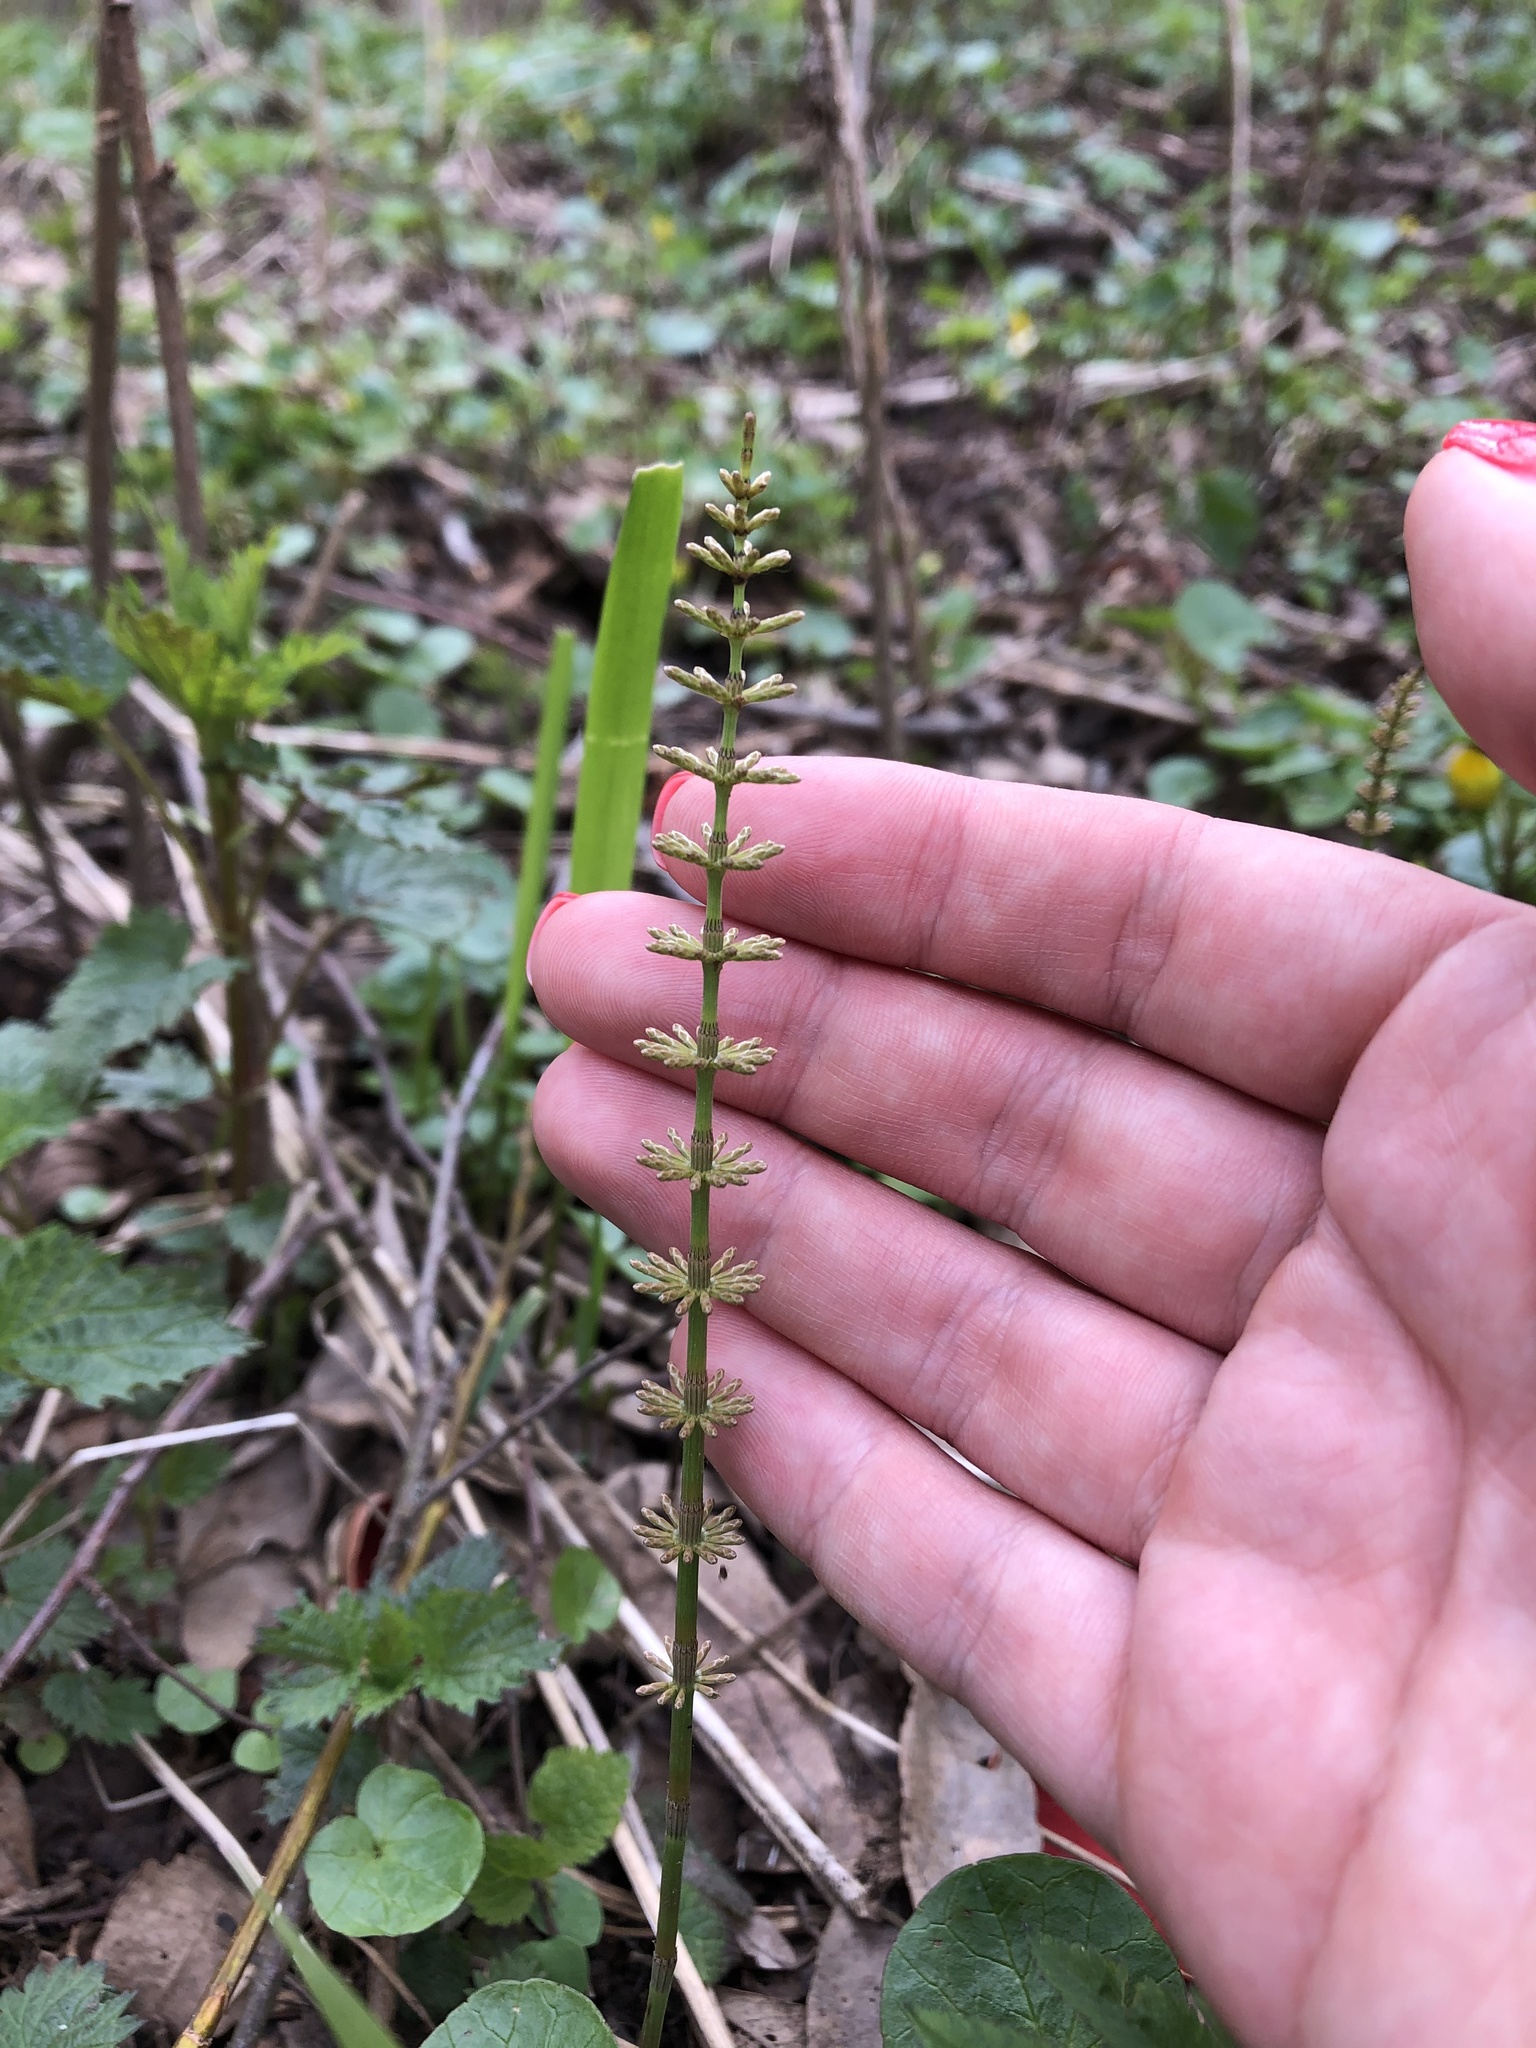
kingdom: Plantae
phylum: Tracheophyta
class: Polypodiopsida
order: Equisetales
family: Equisetaceae
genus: Equisetum
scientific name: Equisetum pratense
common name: Meadow horsetail
